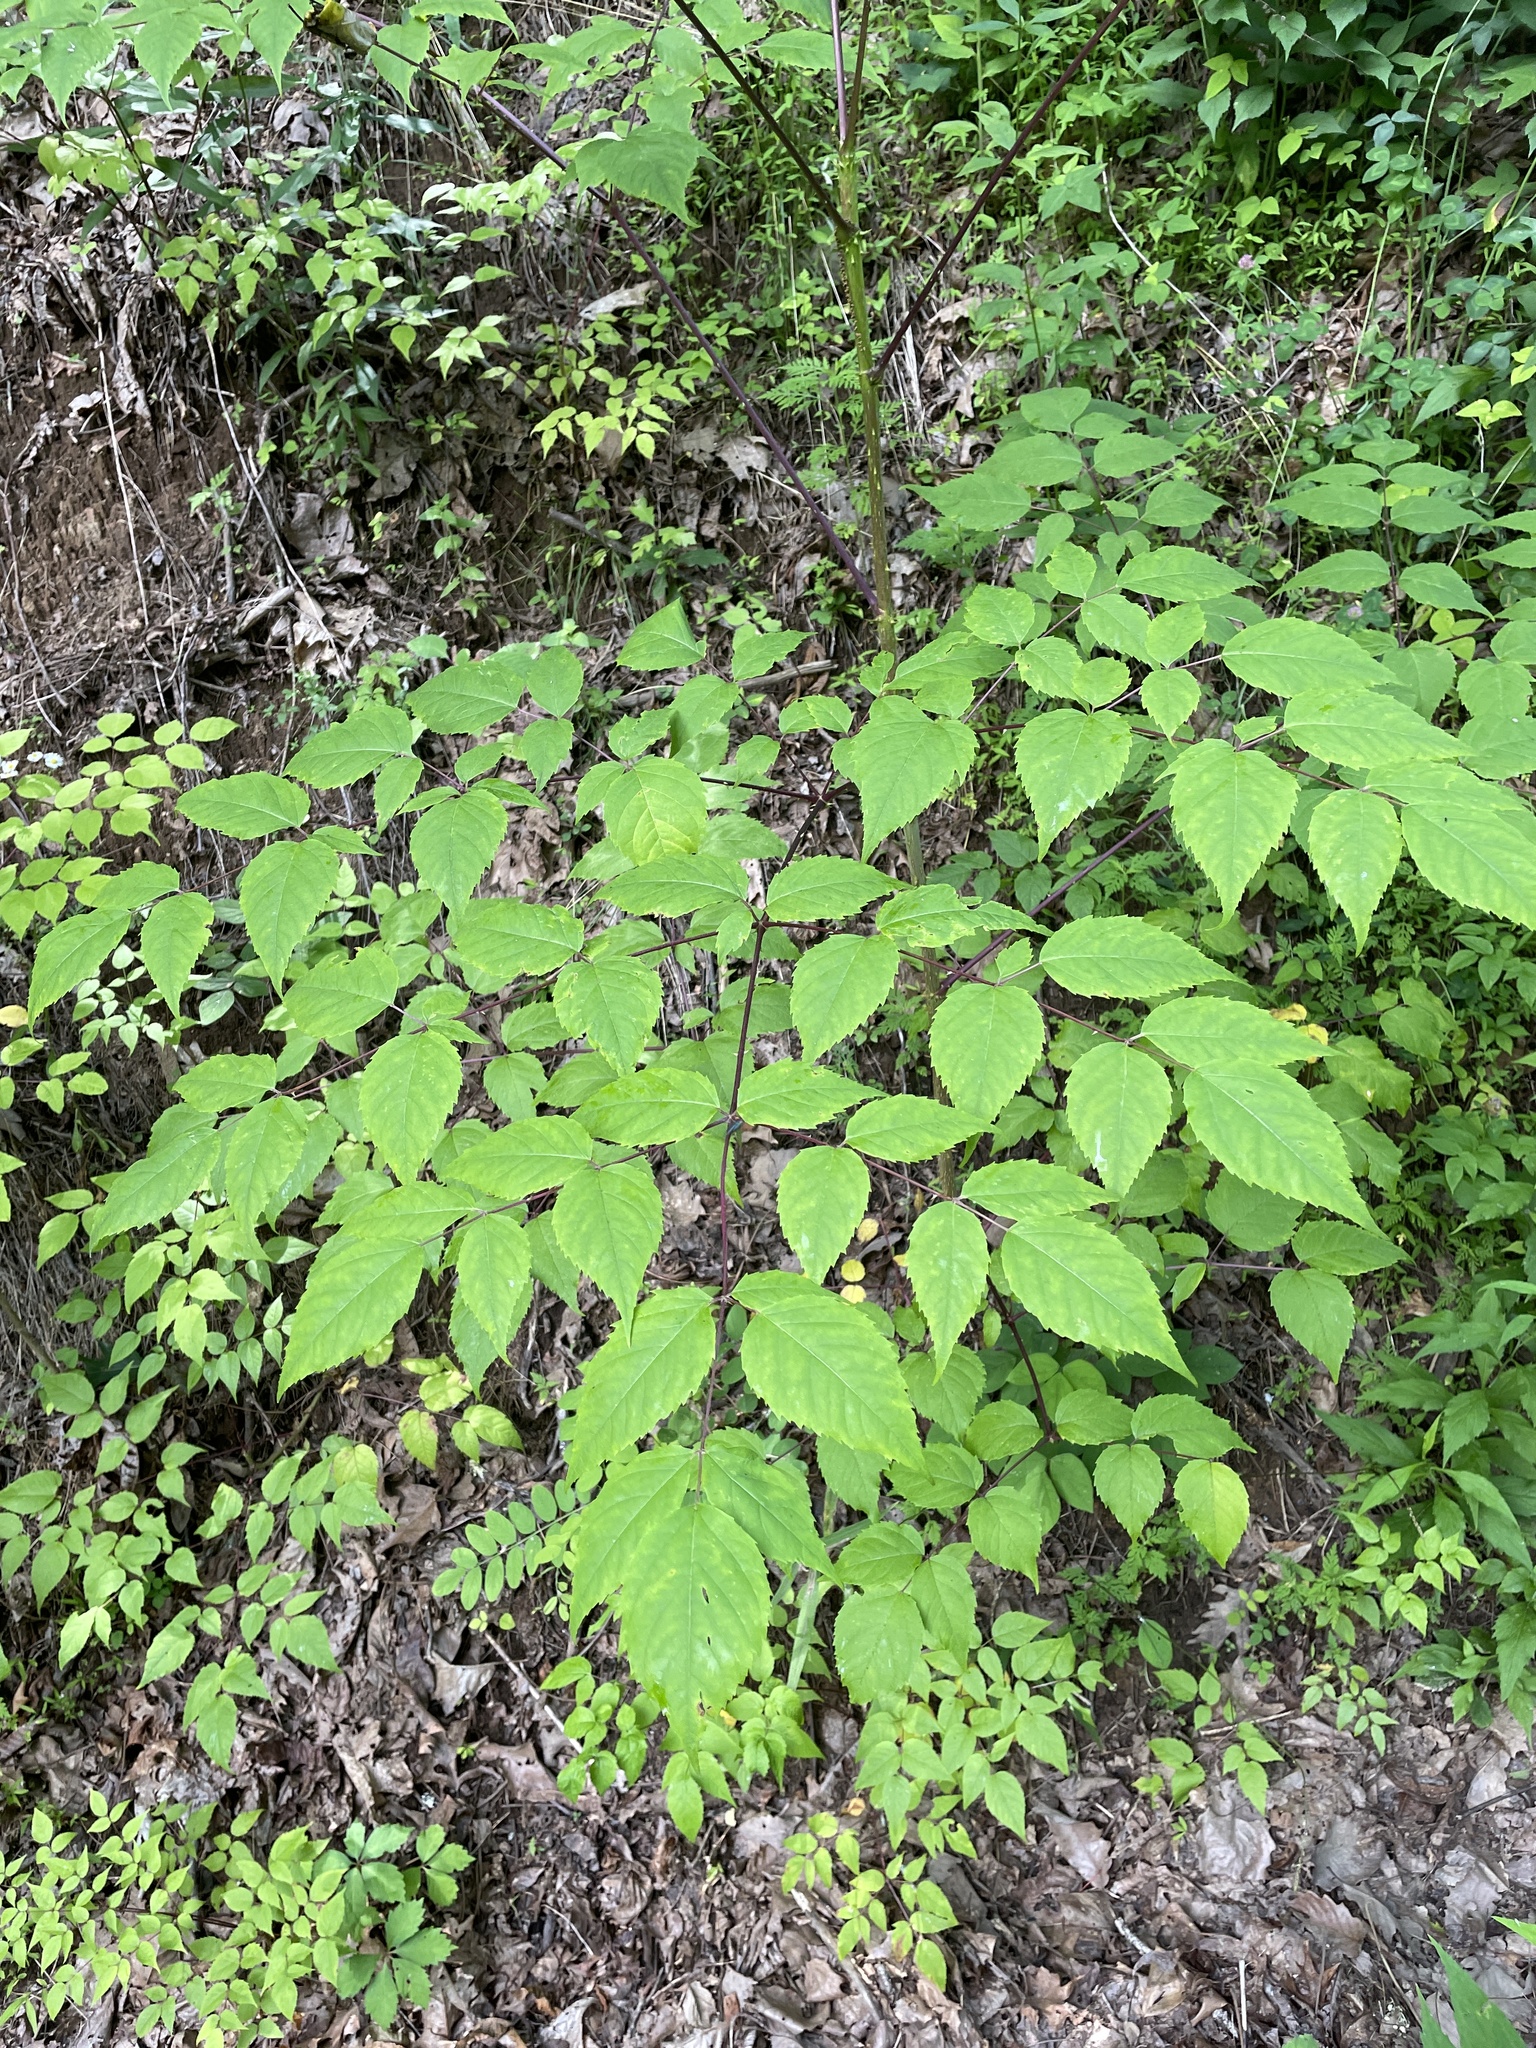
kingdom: Plantae
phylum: Tracheophyta
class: Magnoliopsida
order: Apiales
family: Araliaceae
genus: Aralia
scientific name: Aralia spinosa
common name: Hercules'-club
